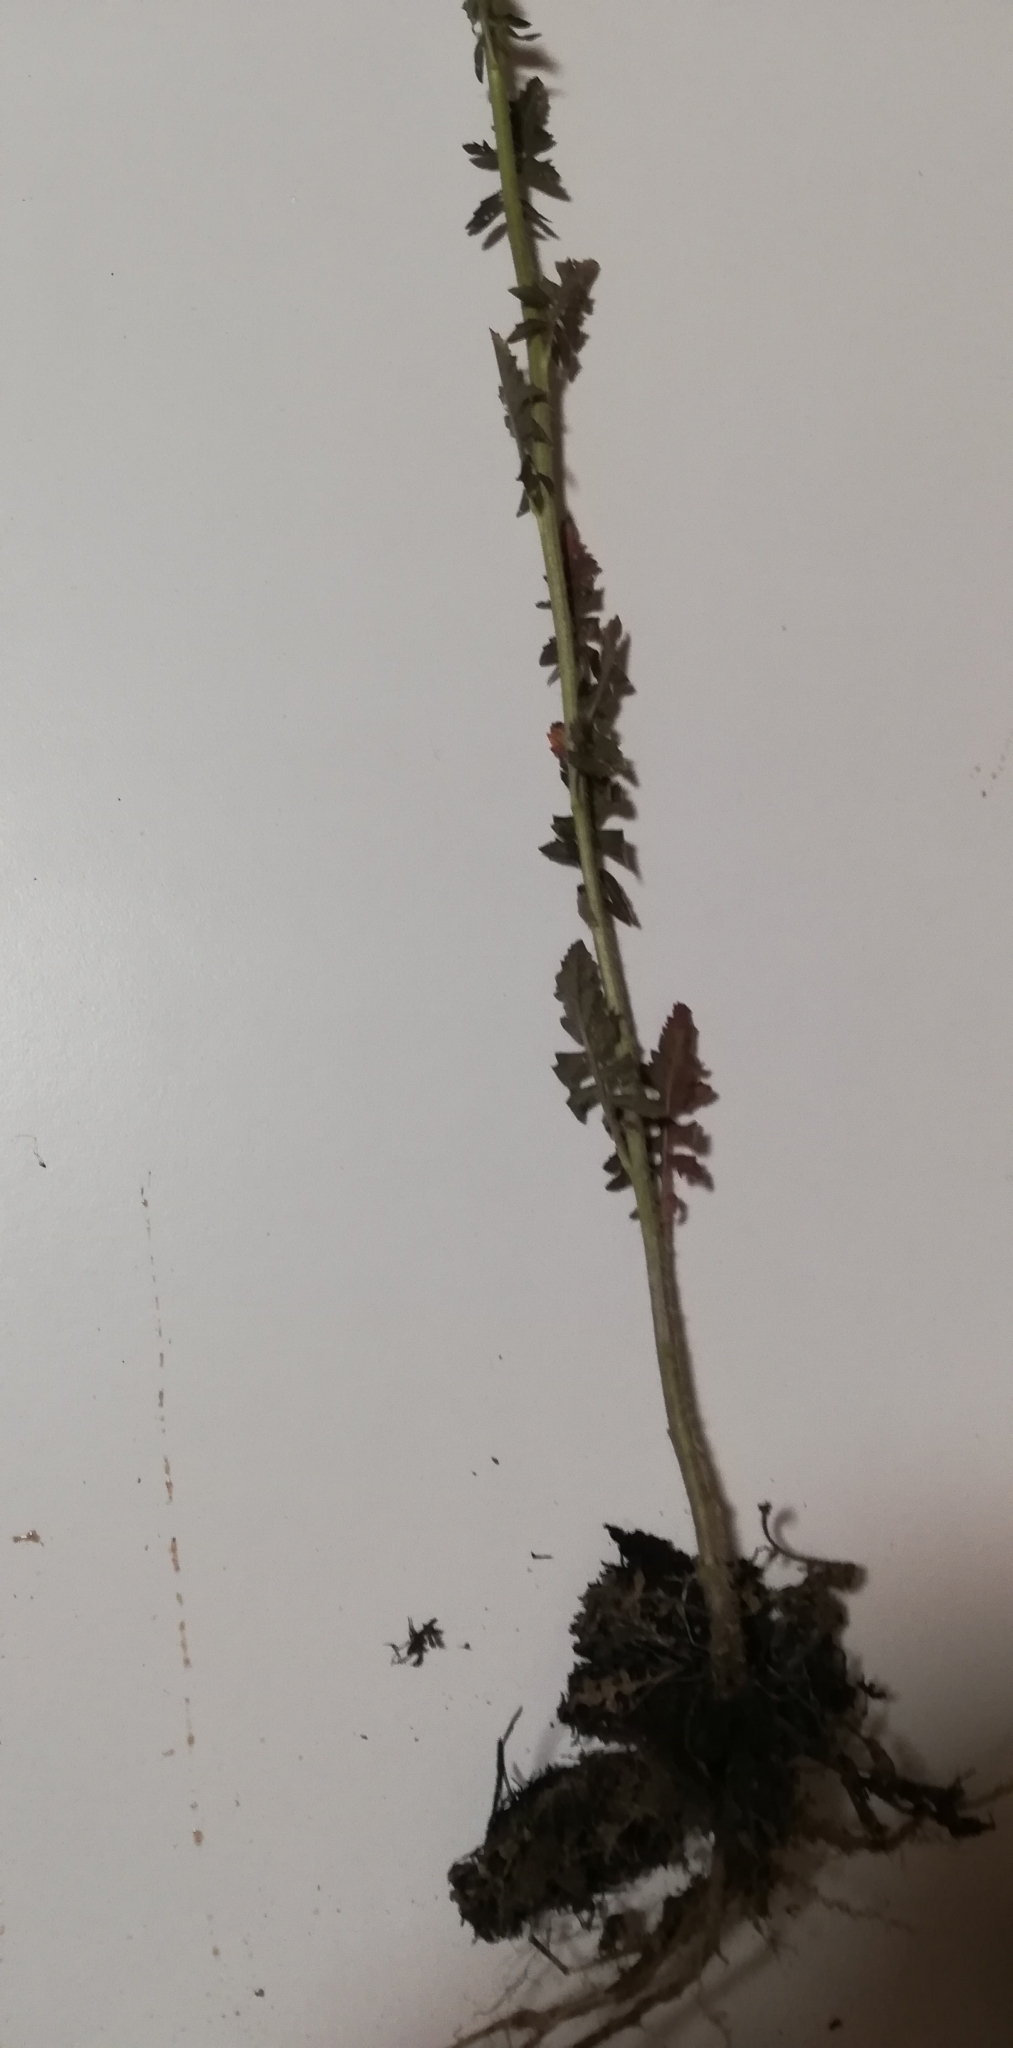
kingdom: Plantae
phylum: Tracheophyta
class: Magnoliopsida
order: Brassicales
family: Brassicaceae
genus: Sisymbrium
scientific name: Sisymbrium loeselii
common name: False london-rocket
